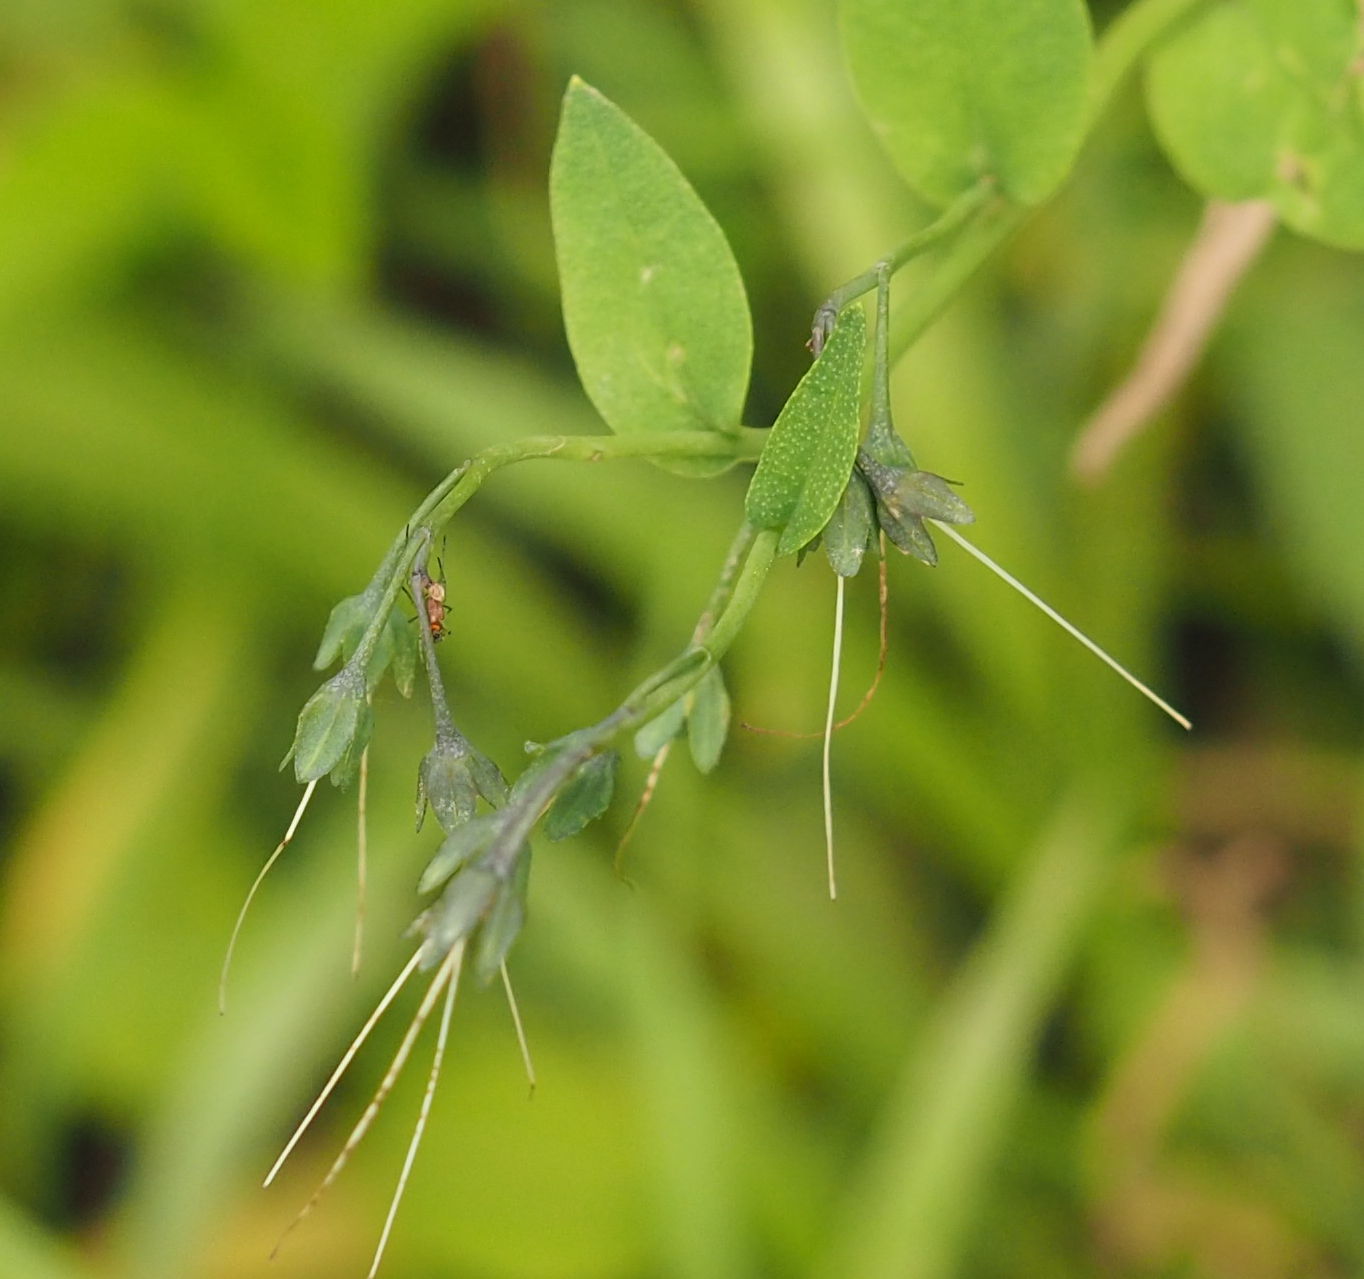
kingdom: Plantae
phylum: Tracheophyta
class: Magnoliopsida
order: Boraginales
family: Boraginaceae
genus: Mertensia
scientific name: Mertensia virginica
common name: Virginia bluebells
